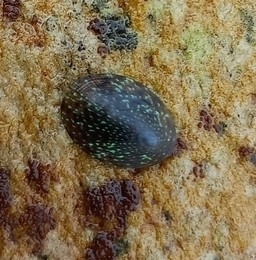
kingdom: Animalia
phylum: Mollusca
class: Gastropoda
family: Patellidae
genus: Helcion
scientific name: Helcion pruinosus
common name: Rayed limpet
